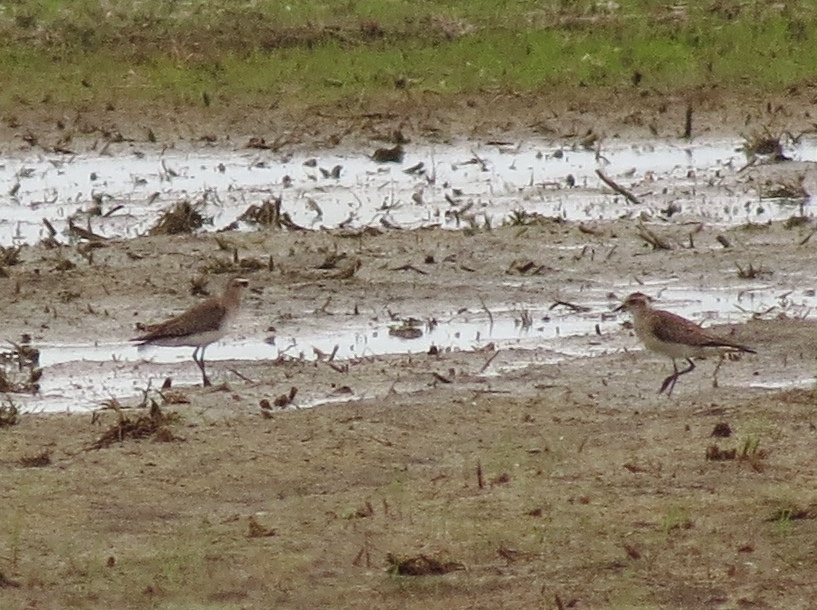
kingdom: Animalia
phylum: Chordata
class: Aves
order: Charadriiformes
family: Charadriidae
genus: Pluvialis
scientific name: Pluvialis dominica
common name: American golden plover
